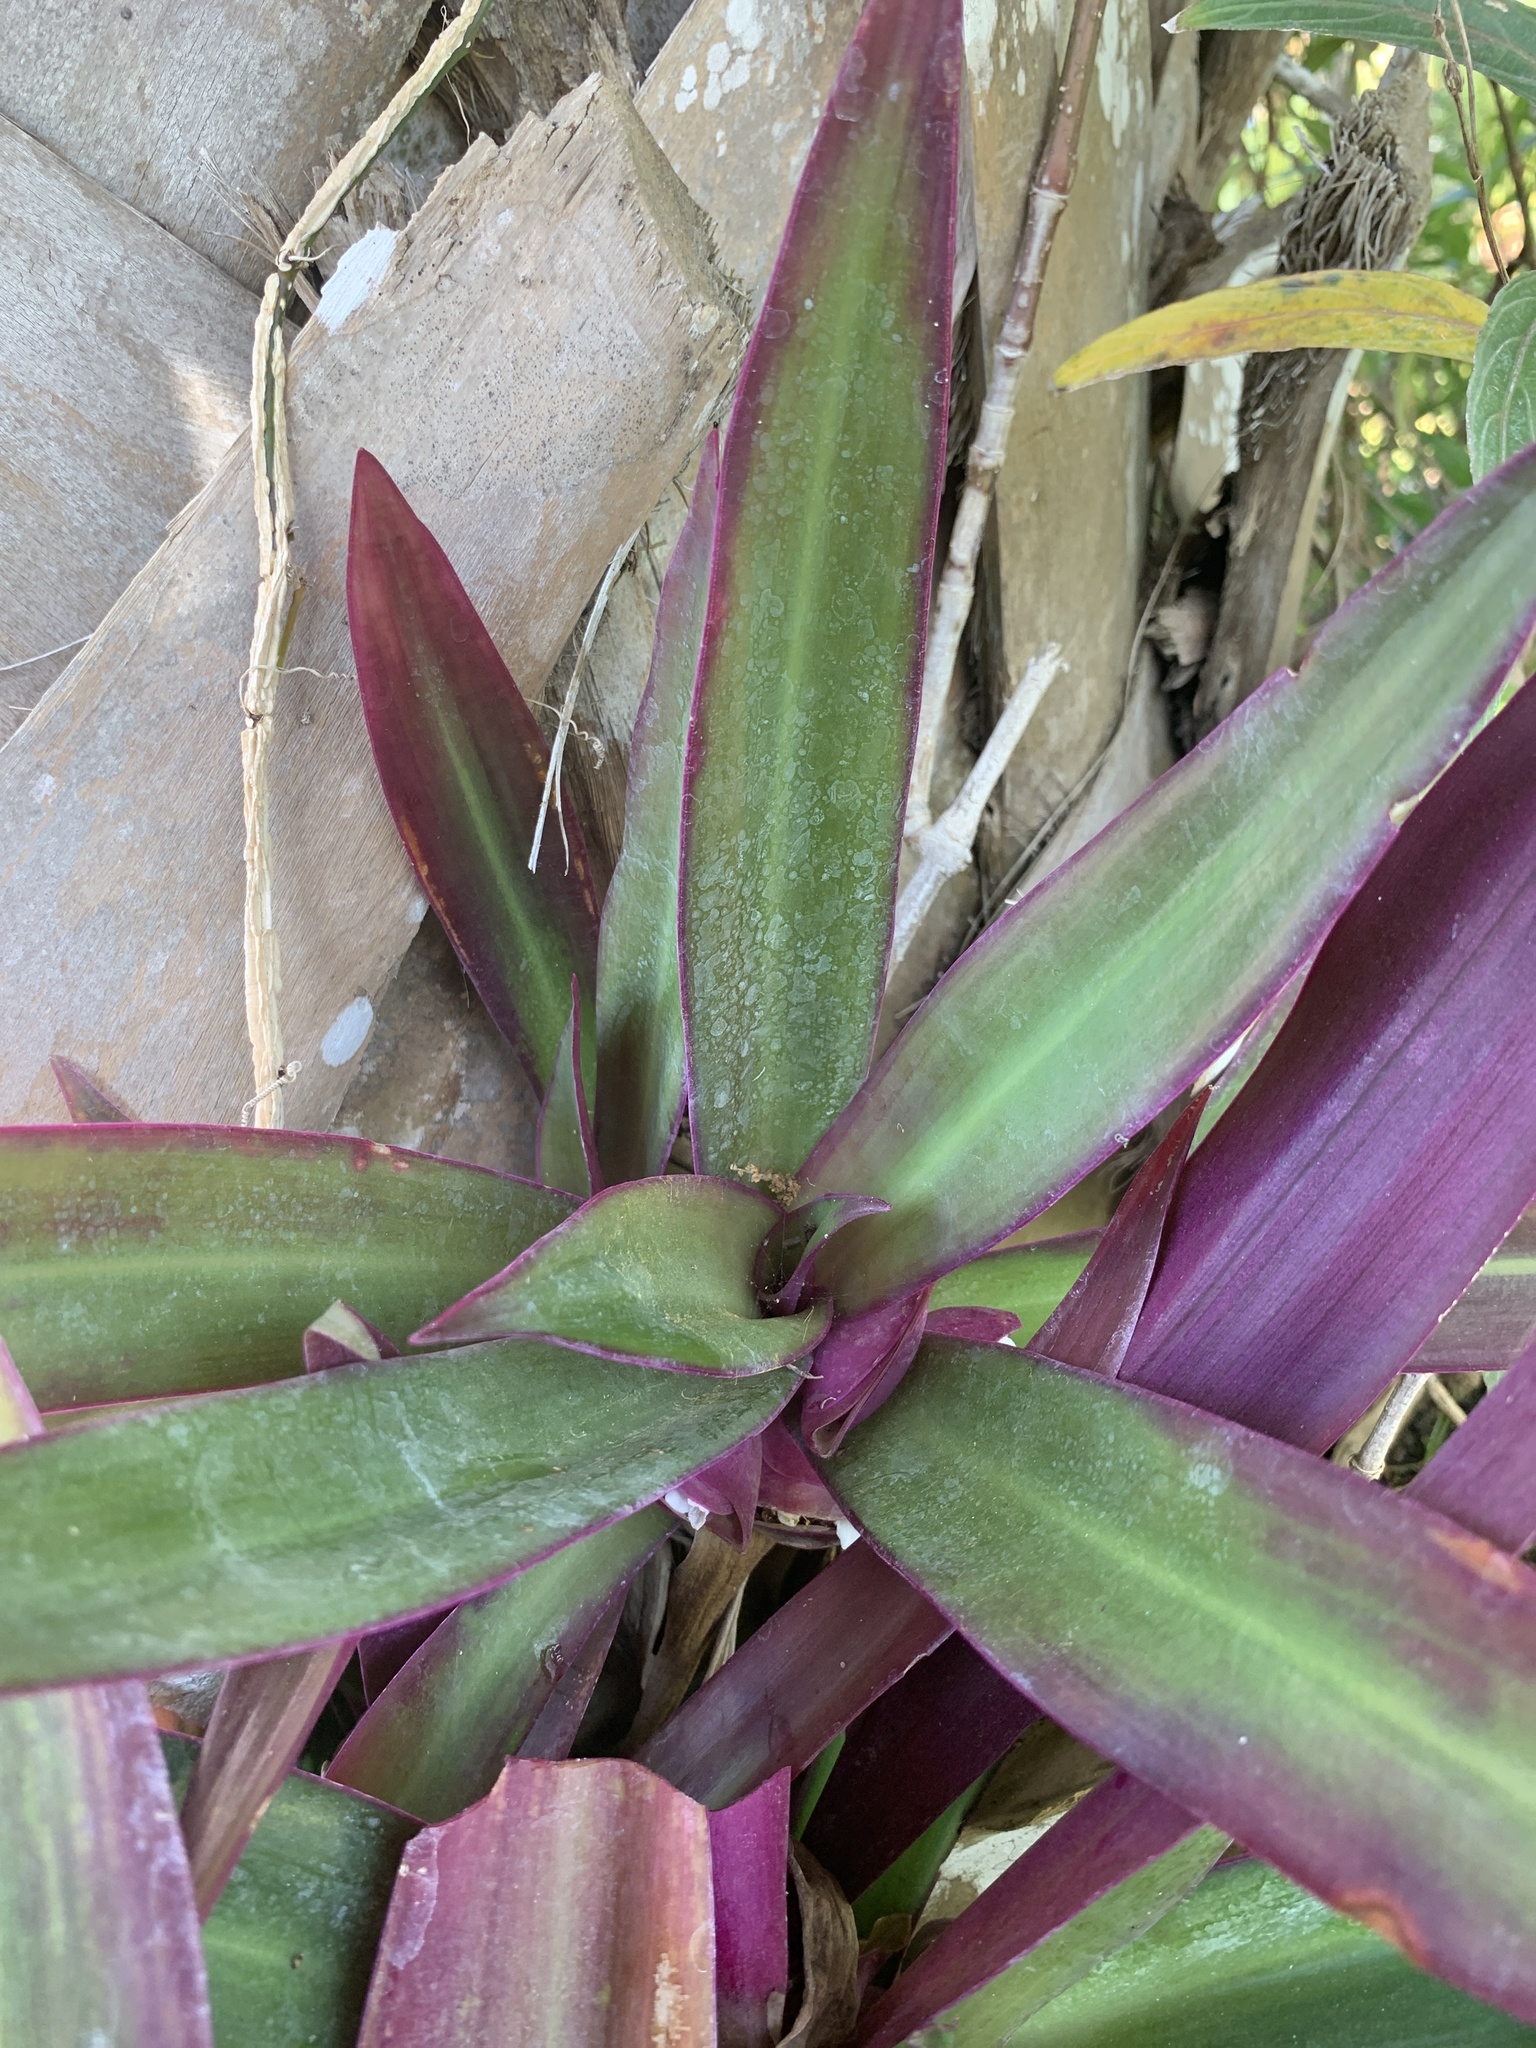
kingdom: Plantae
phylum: Tracheophyta
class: Liliopsida
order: Commelinales
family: Commelinaceae
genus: Tradescantia
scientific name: Tradescantia spathacea
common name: Boatlily
